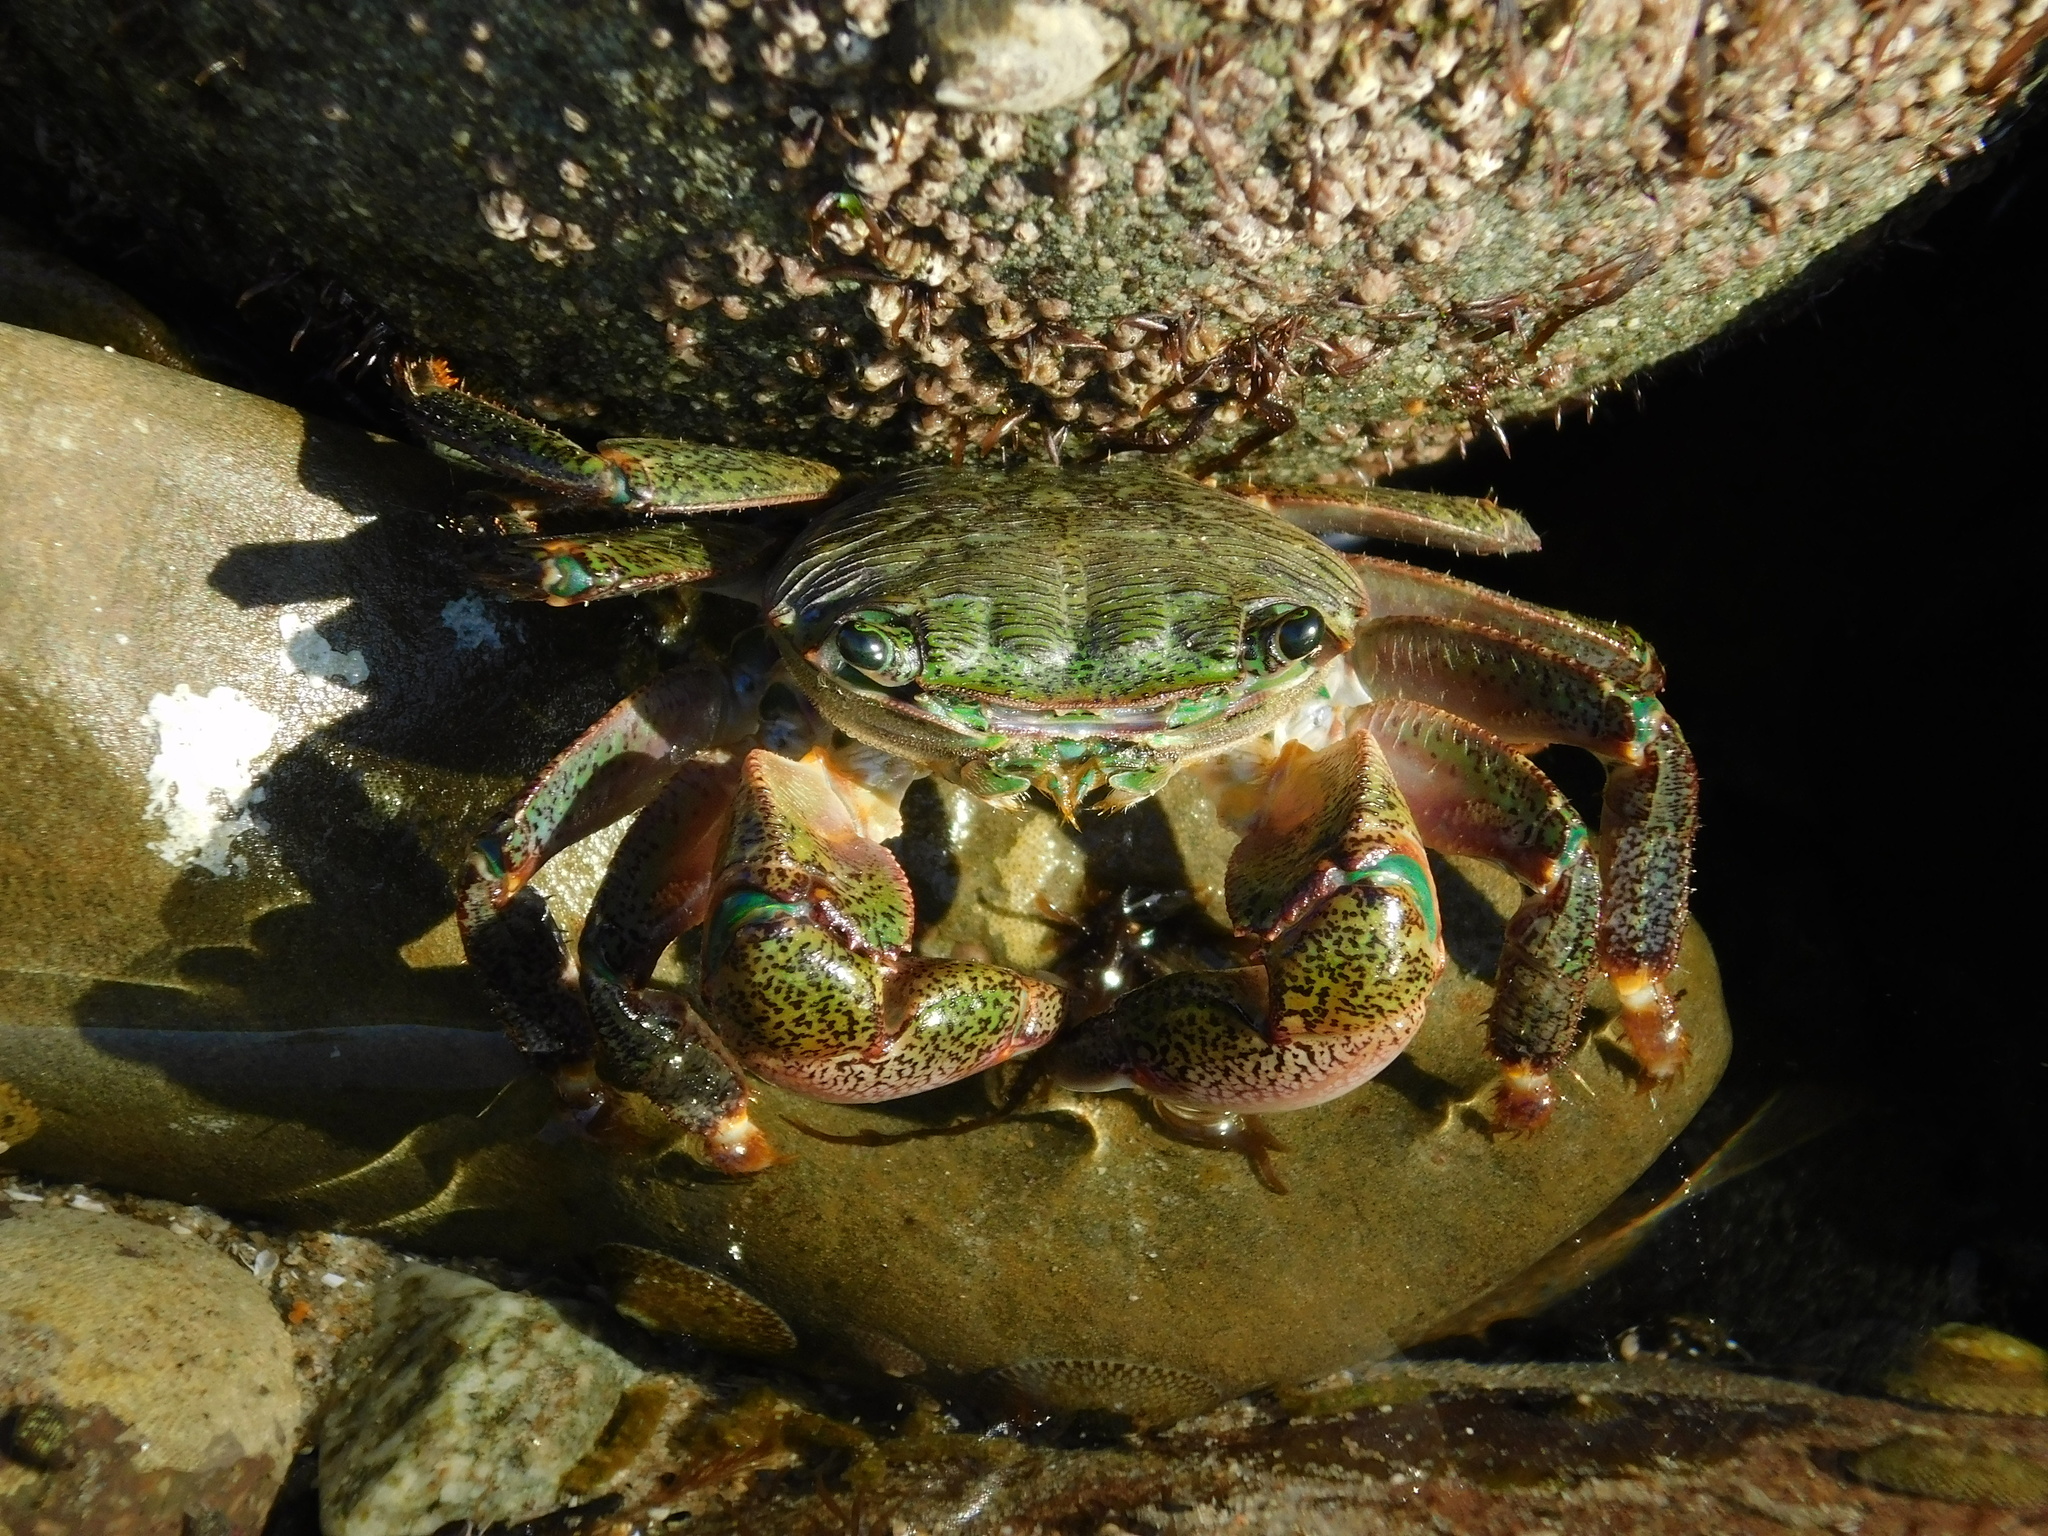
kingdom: Animalia
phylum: Arthropoda
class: Malacostraca
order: Decapoda
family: Grapsidae
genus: Pachygrapsus
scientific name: Pachygrapsus crassipes
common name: Striped shore crab
